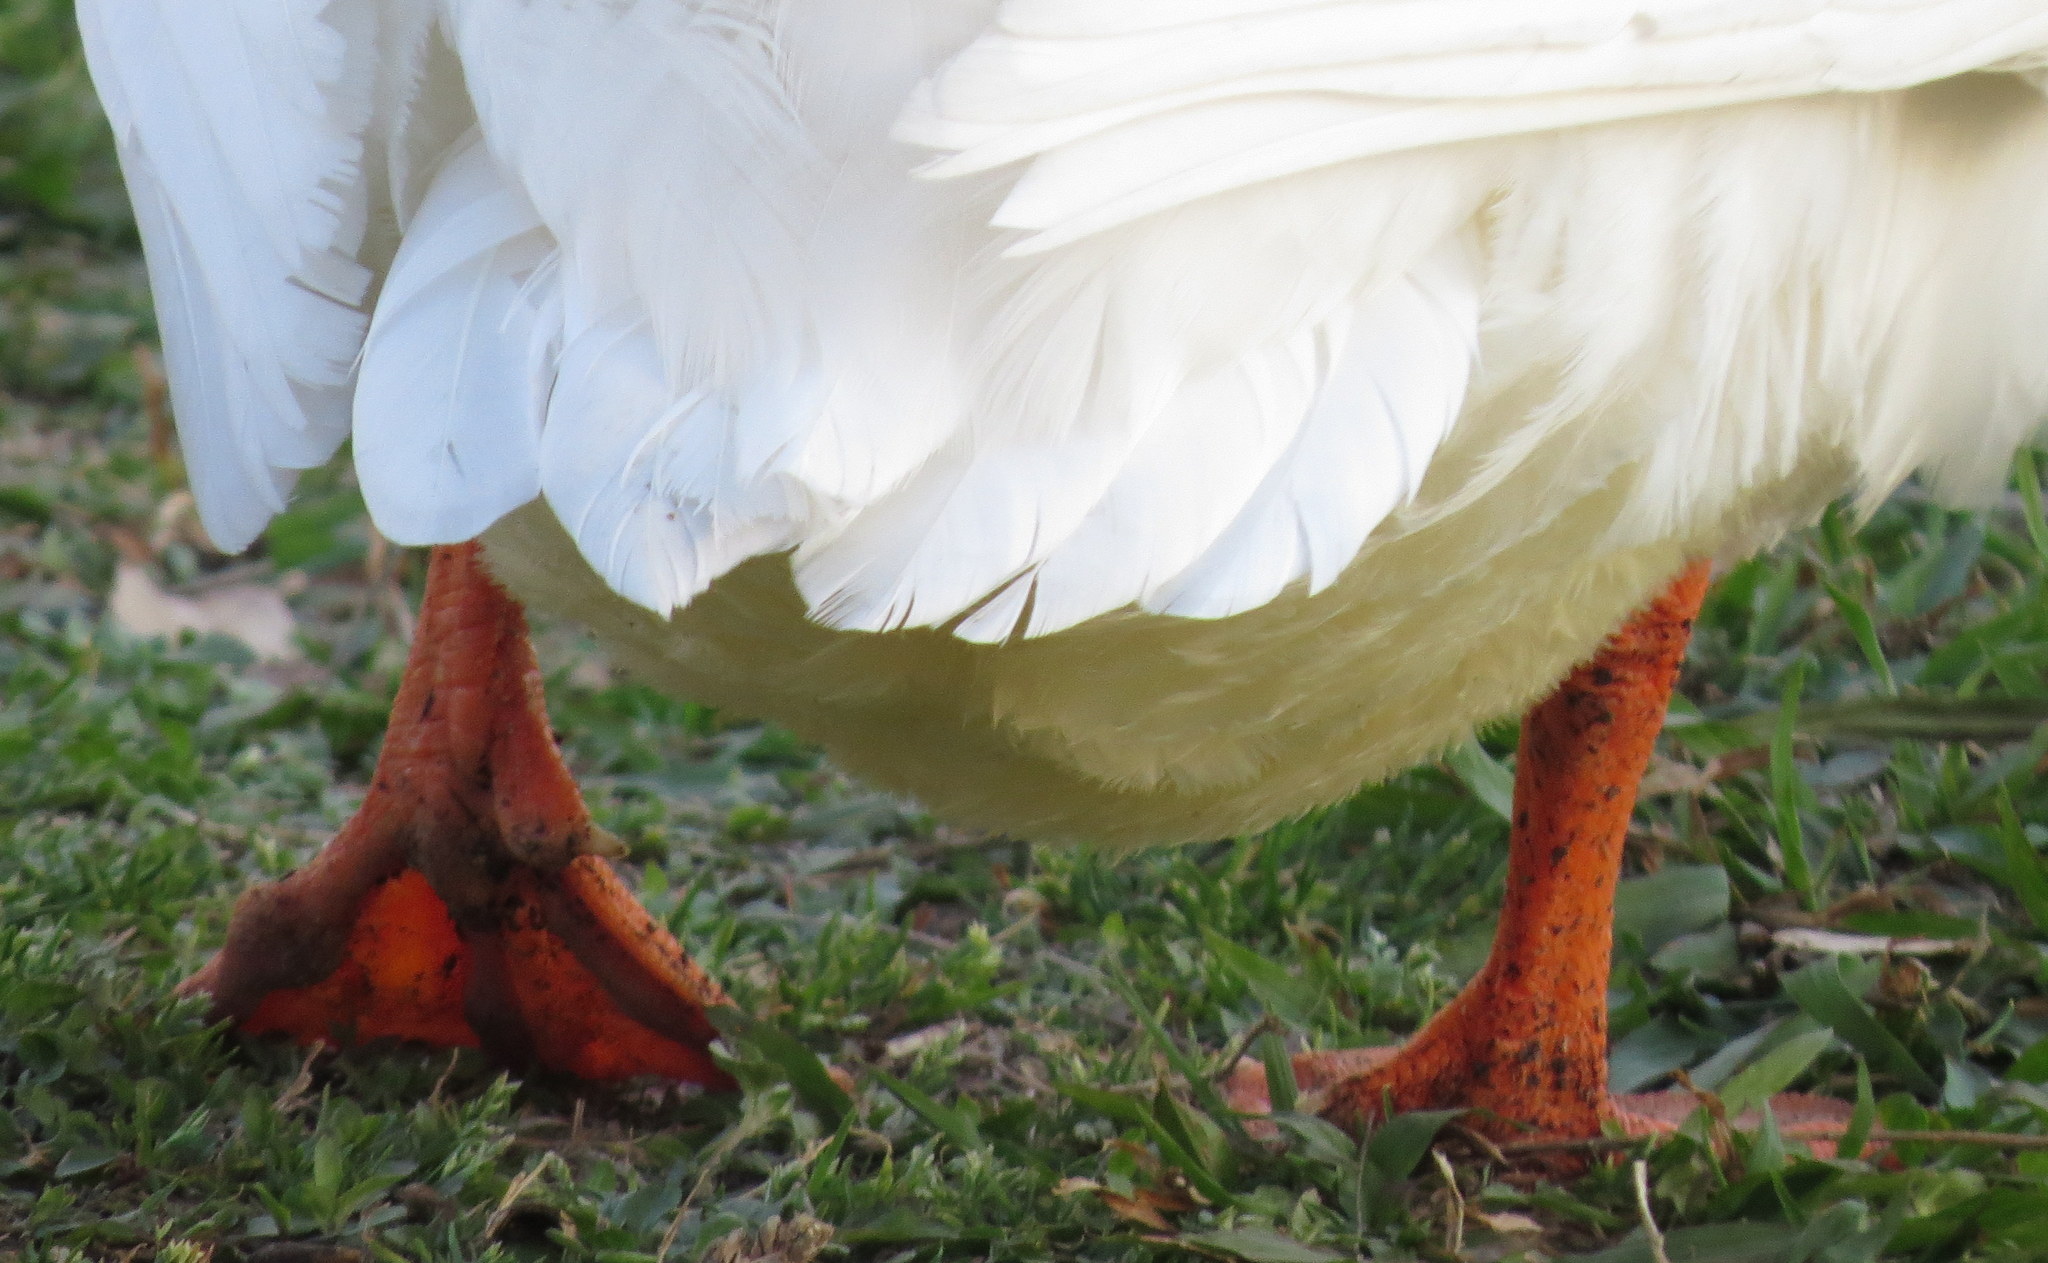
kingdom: Animalia
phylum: Chordata
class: Aves
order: Anseriformes
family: Anatidae
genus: Anas
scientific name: Anas platyrhynchos
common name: Mallard
